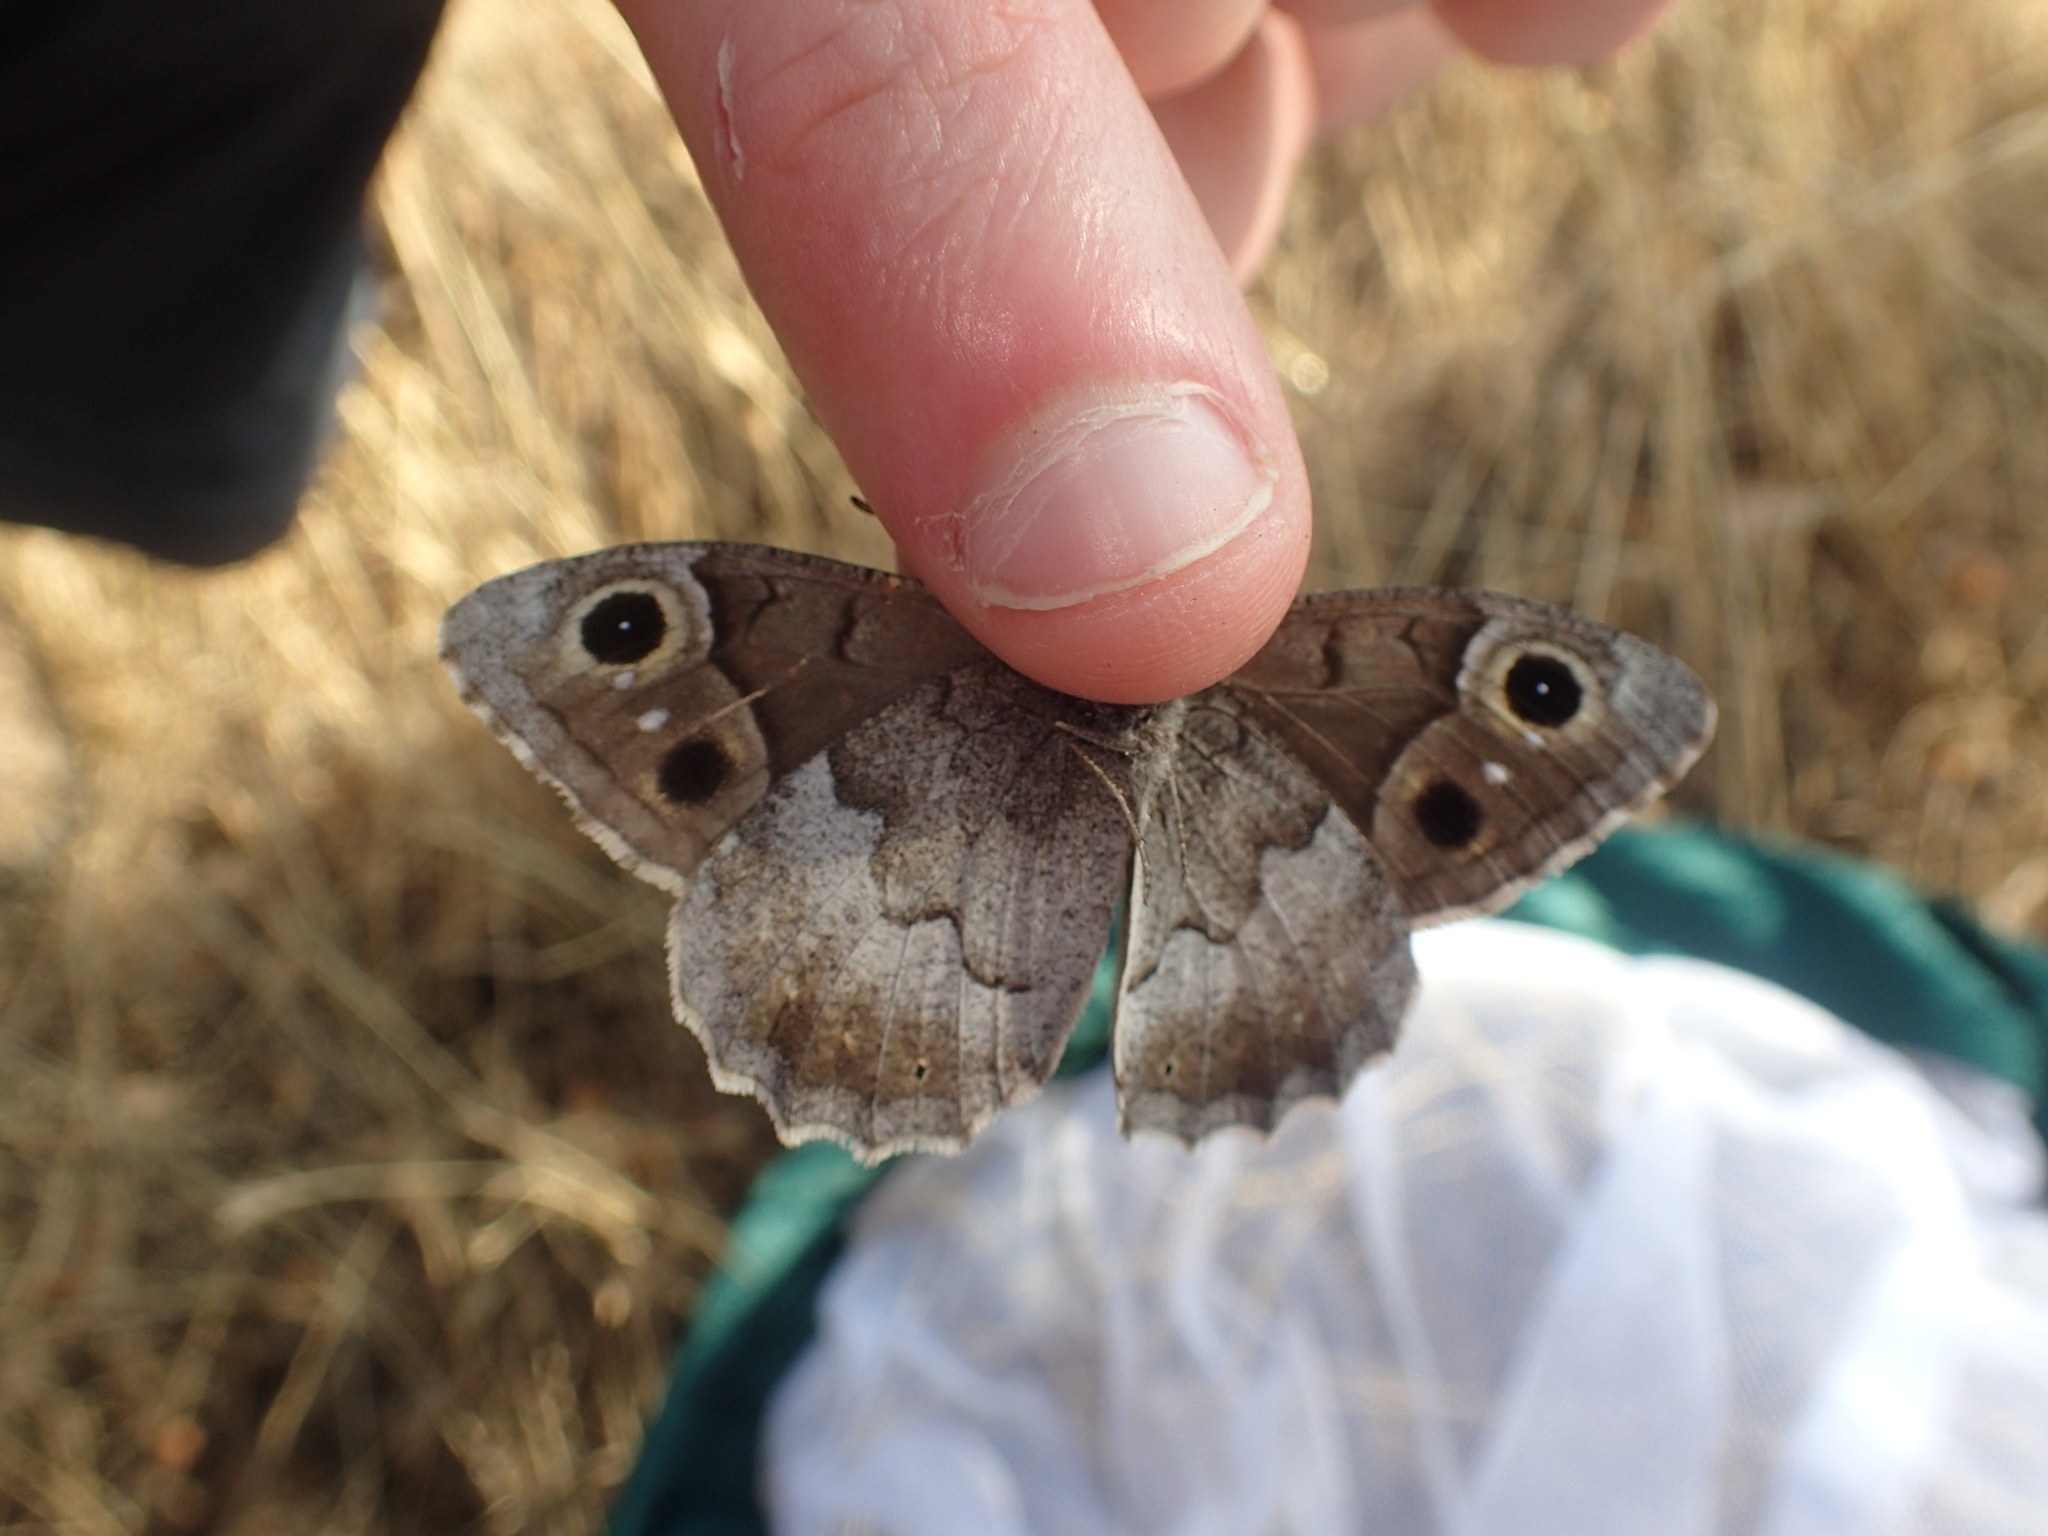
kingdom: Animalia
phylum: Arthropoda
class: Insecta
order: Lepidoptera
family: Nymphalidae
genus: Hipparchia
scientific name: Hipparchia statilinus
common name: Tree grayling
